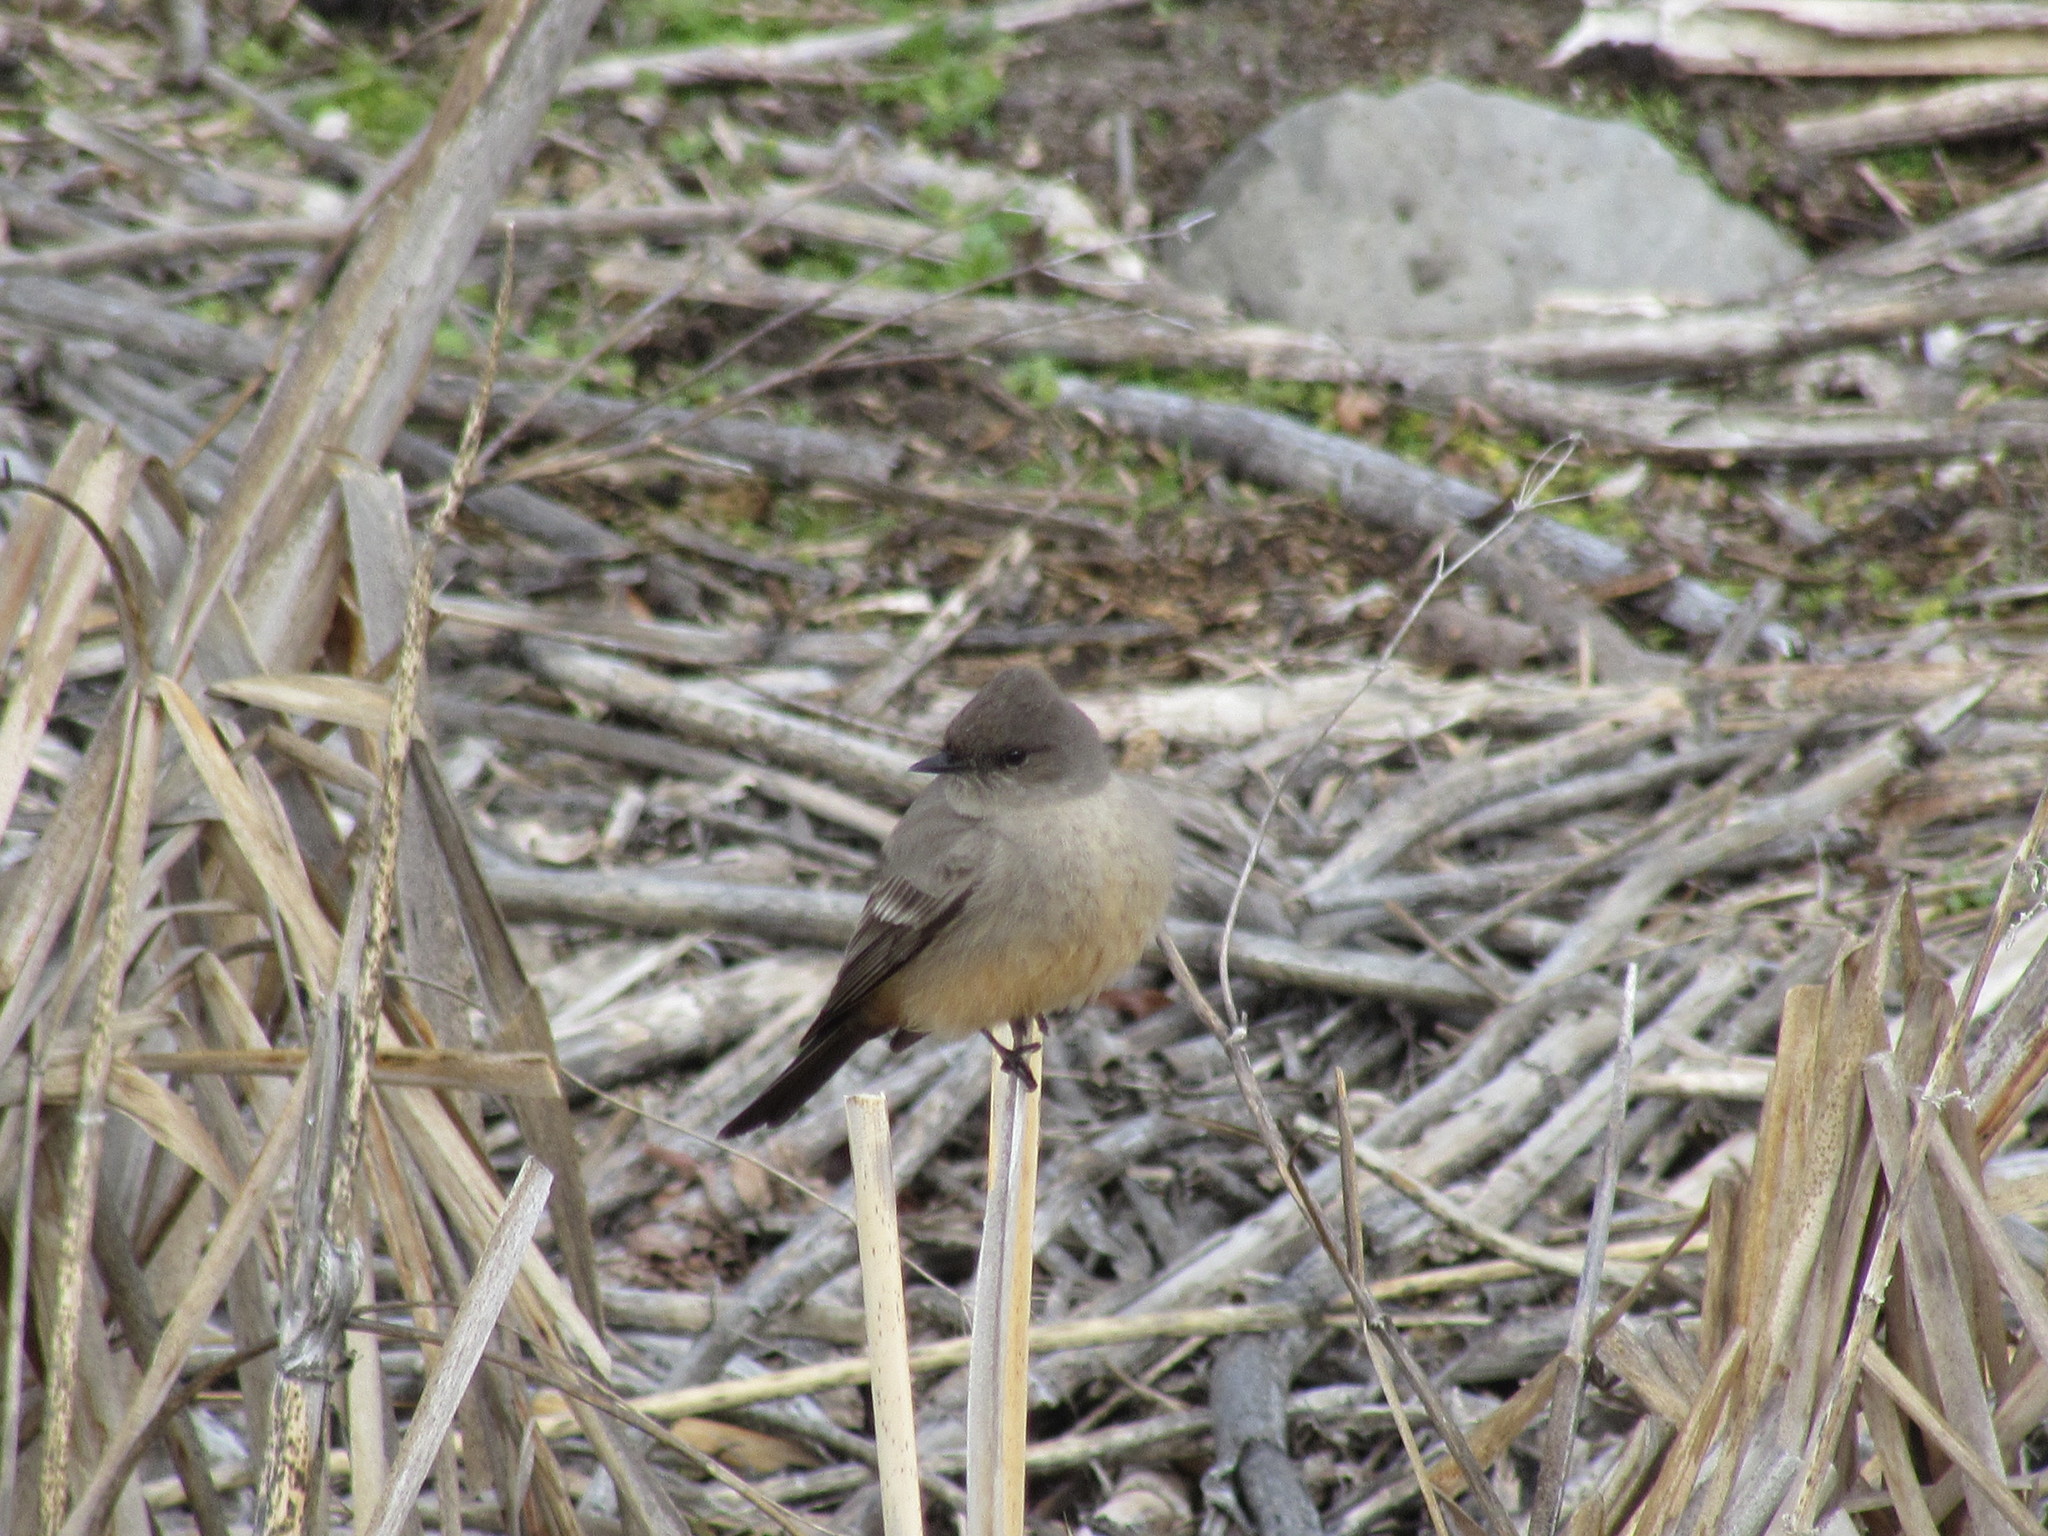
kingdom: Animalia
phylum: Chordata
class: Aves
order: Passeriformes
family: Tyrannidae
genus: Sayornis
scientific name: Sayornis saya
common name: Say's phoebe
